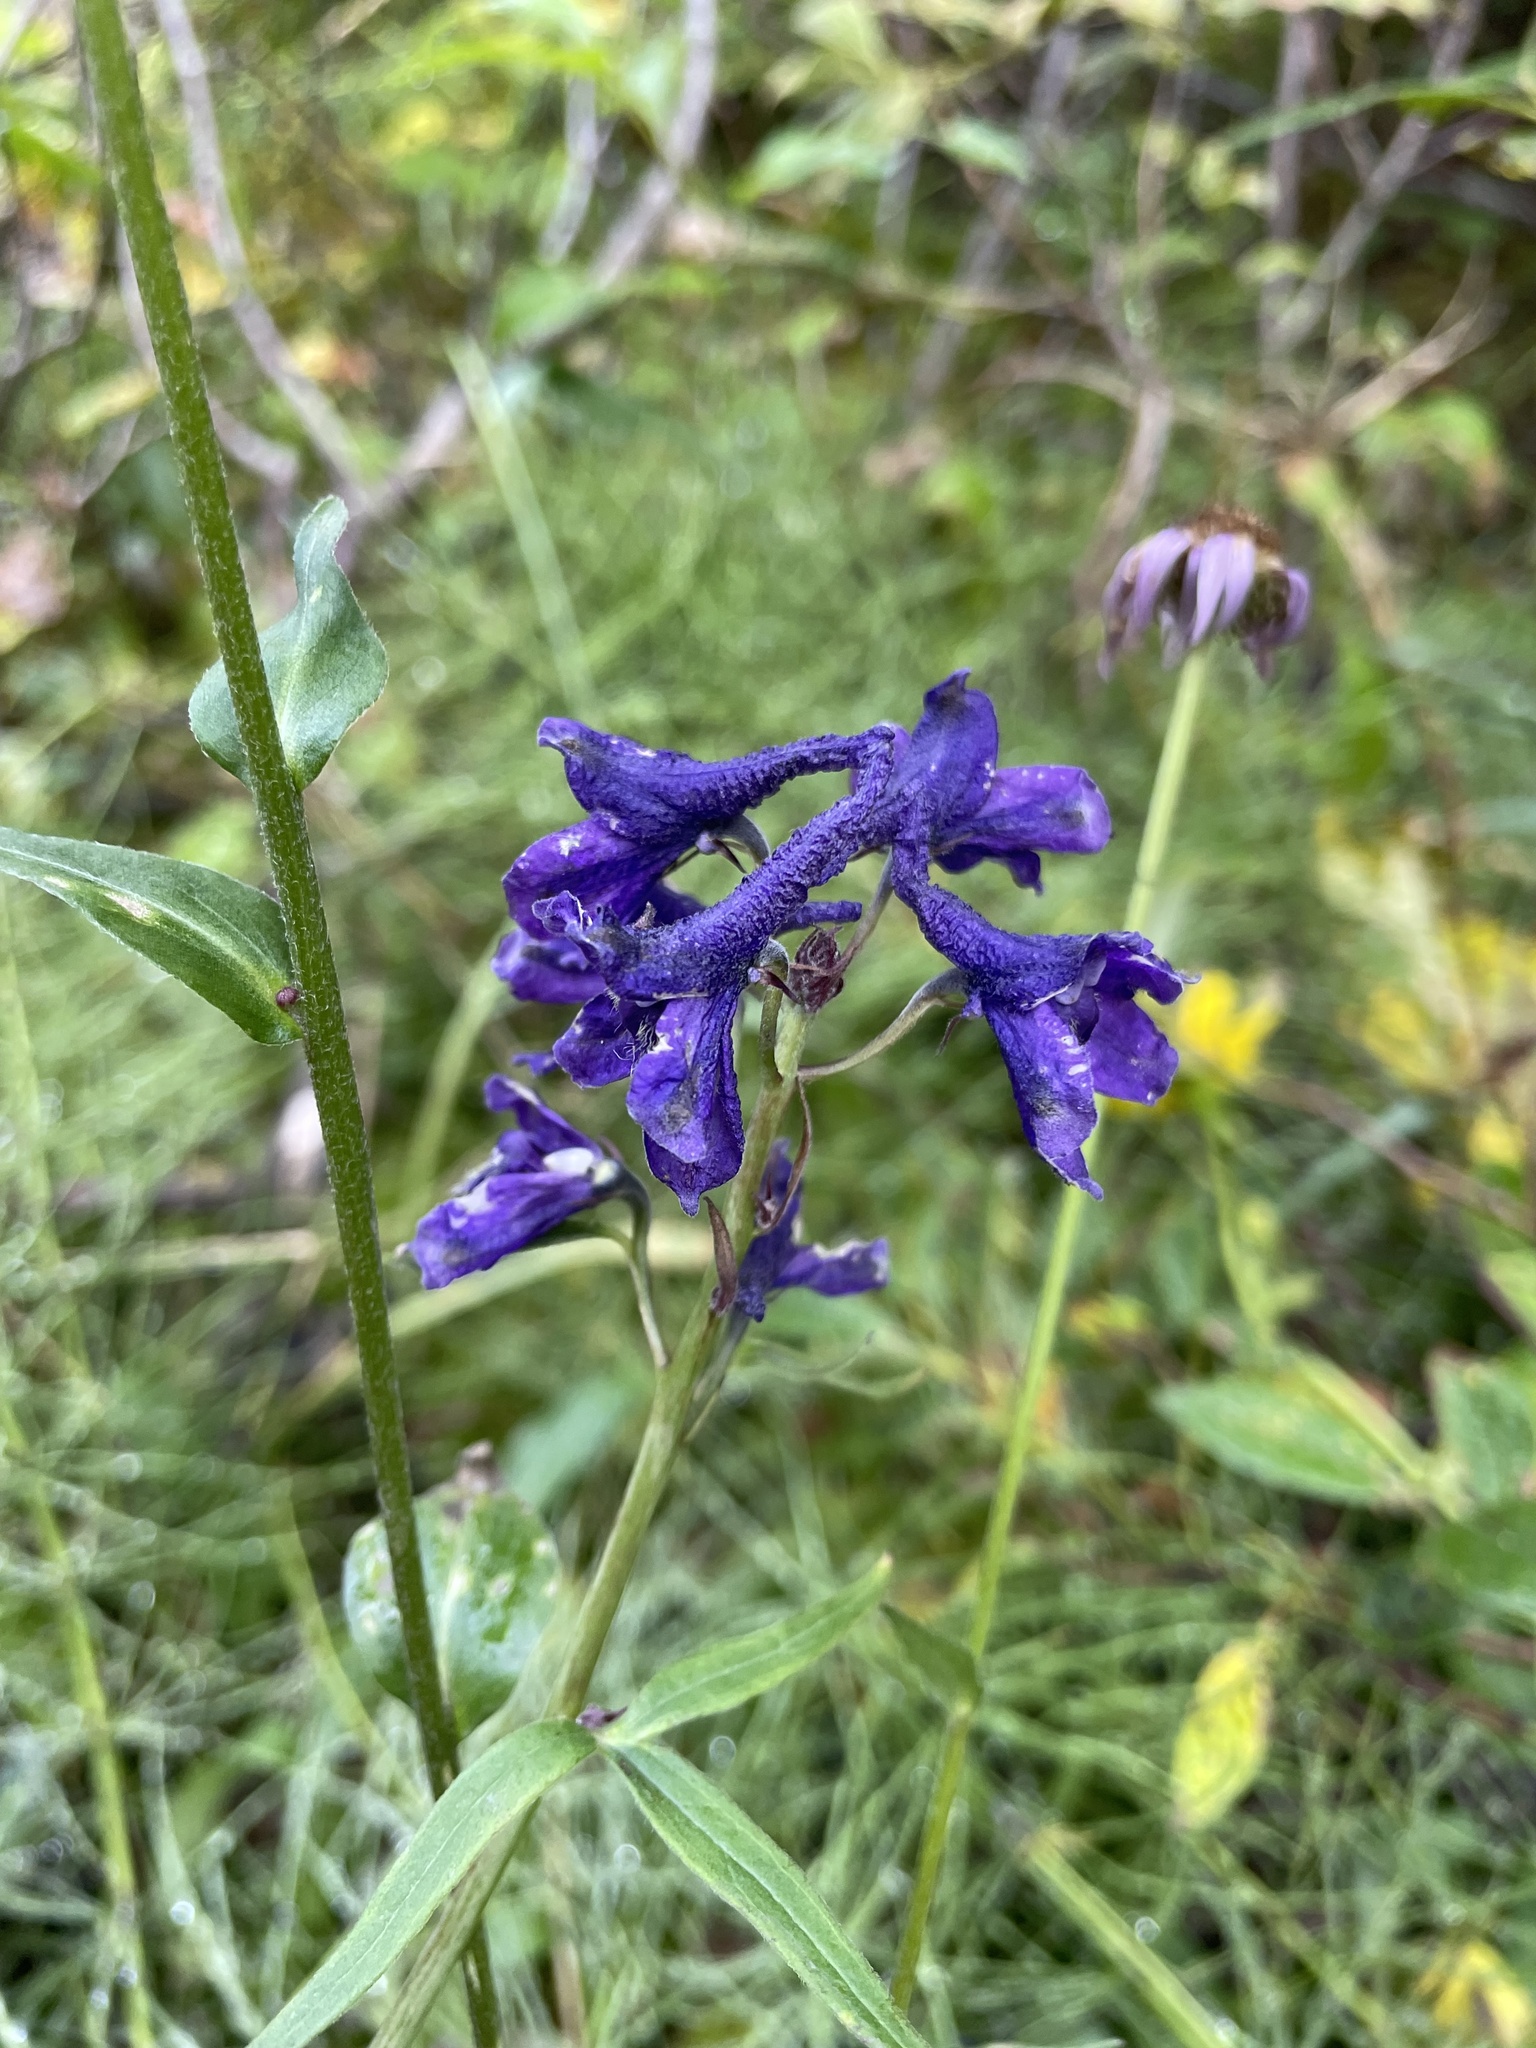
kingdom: Plantae
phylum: Tracheophyta
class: Magnoliopsida
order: Ranunculales
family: Ranunculaceae
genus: Delphinium
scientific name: Delphinium glaucum
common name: Brown's larkspur
